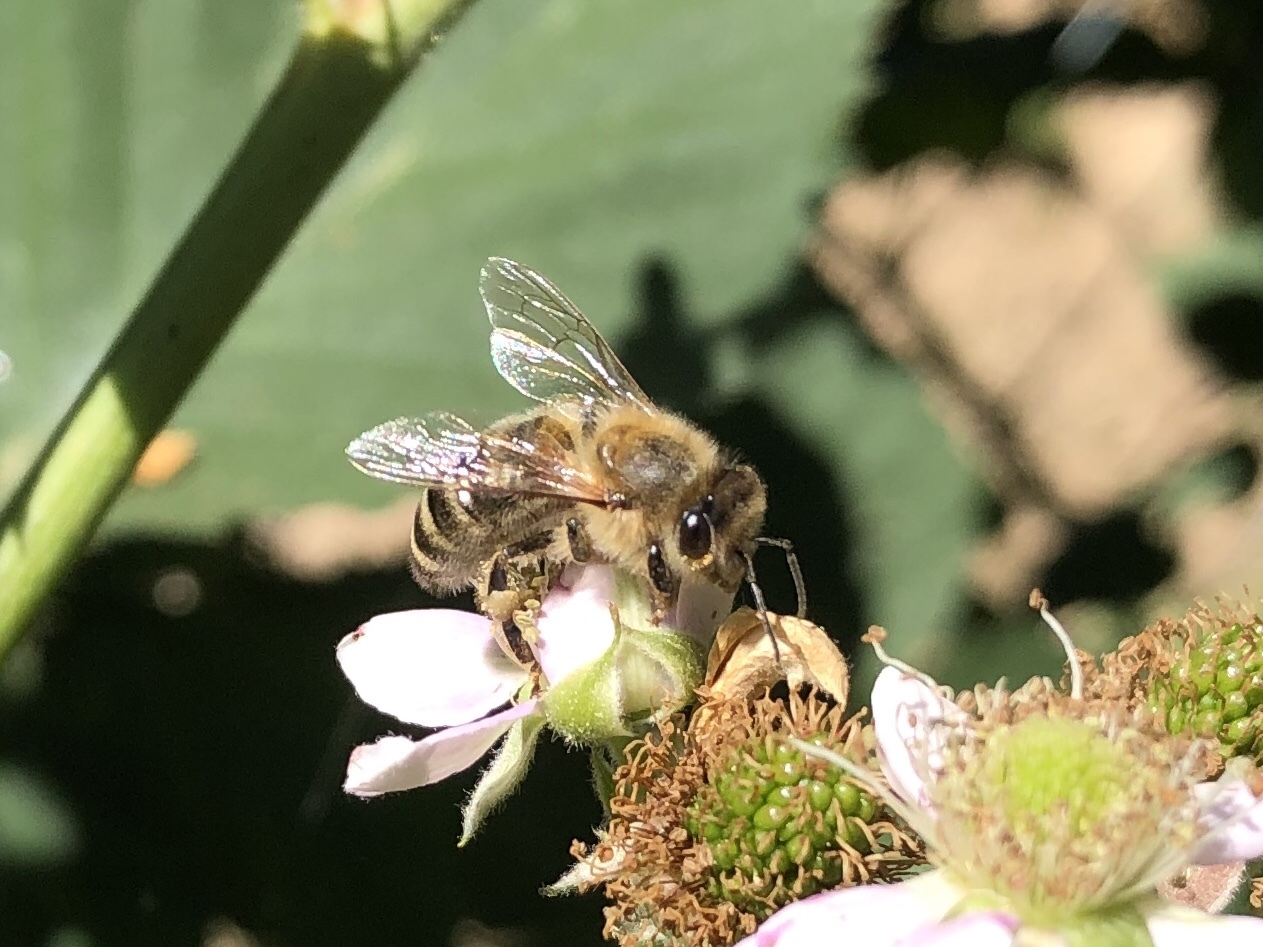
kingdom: Animalia
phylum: Arthropoda
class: Insecta
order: Hymenoptera
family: Apidae
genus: Apis
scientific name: Apis mellifera
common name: Honey bee
